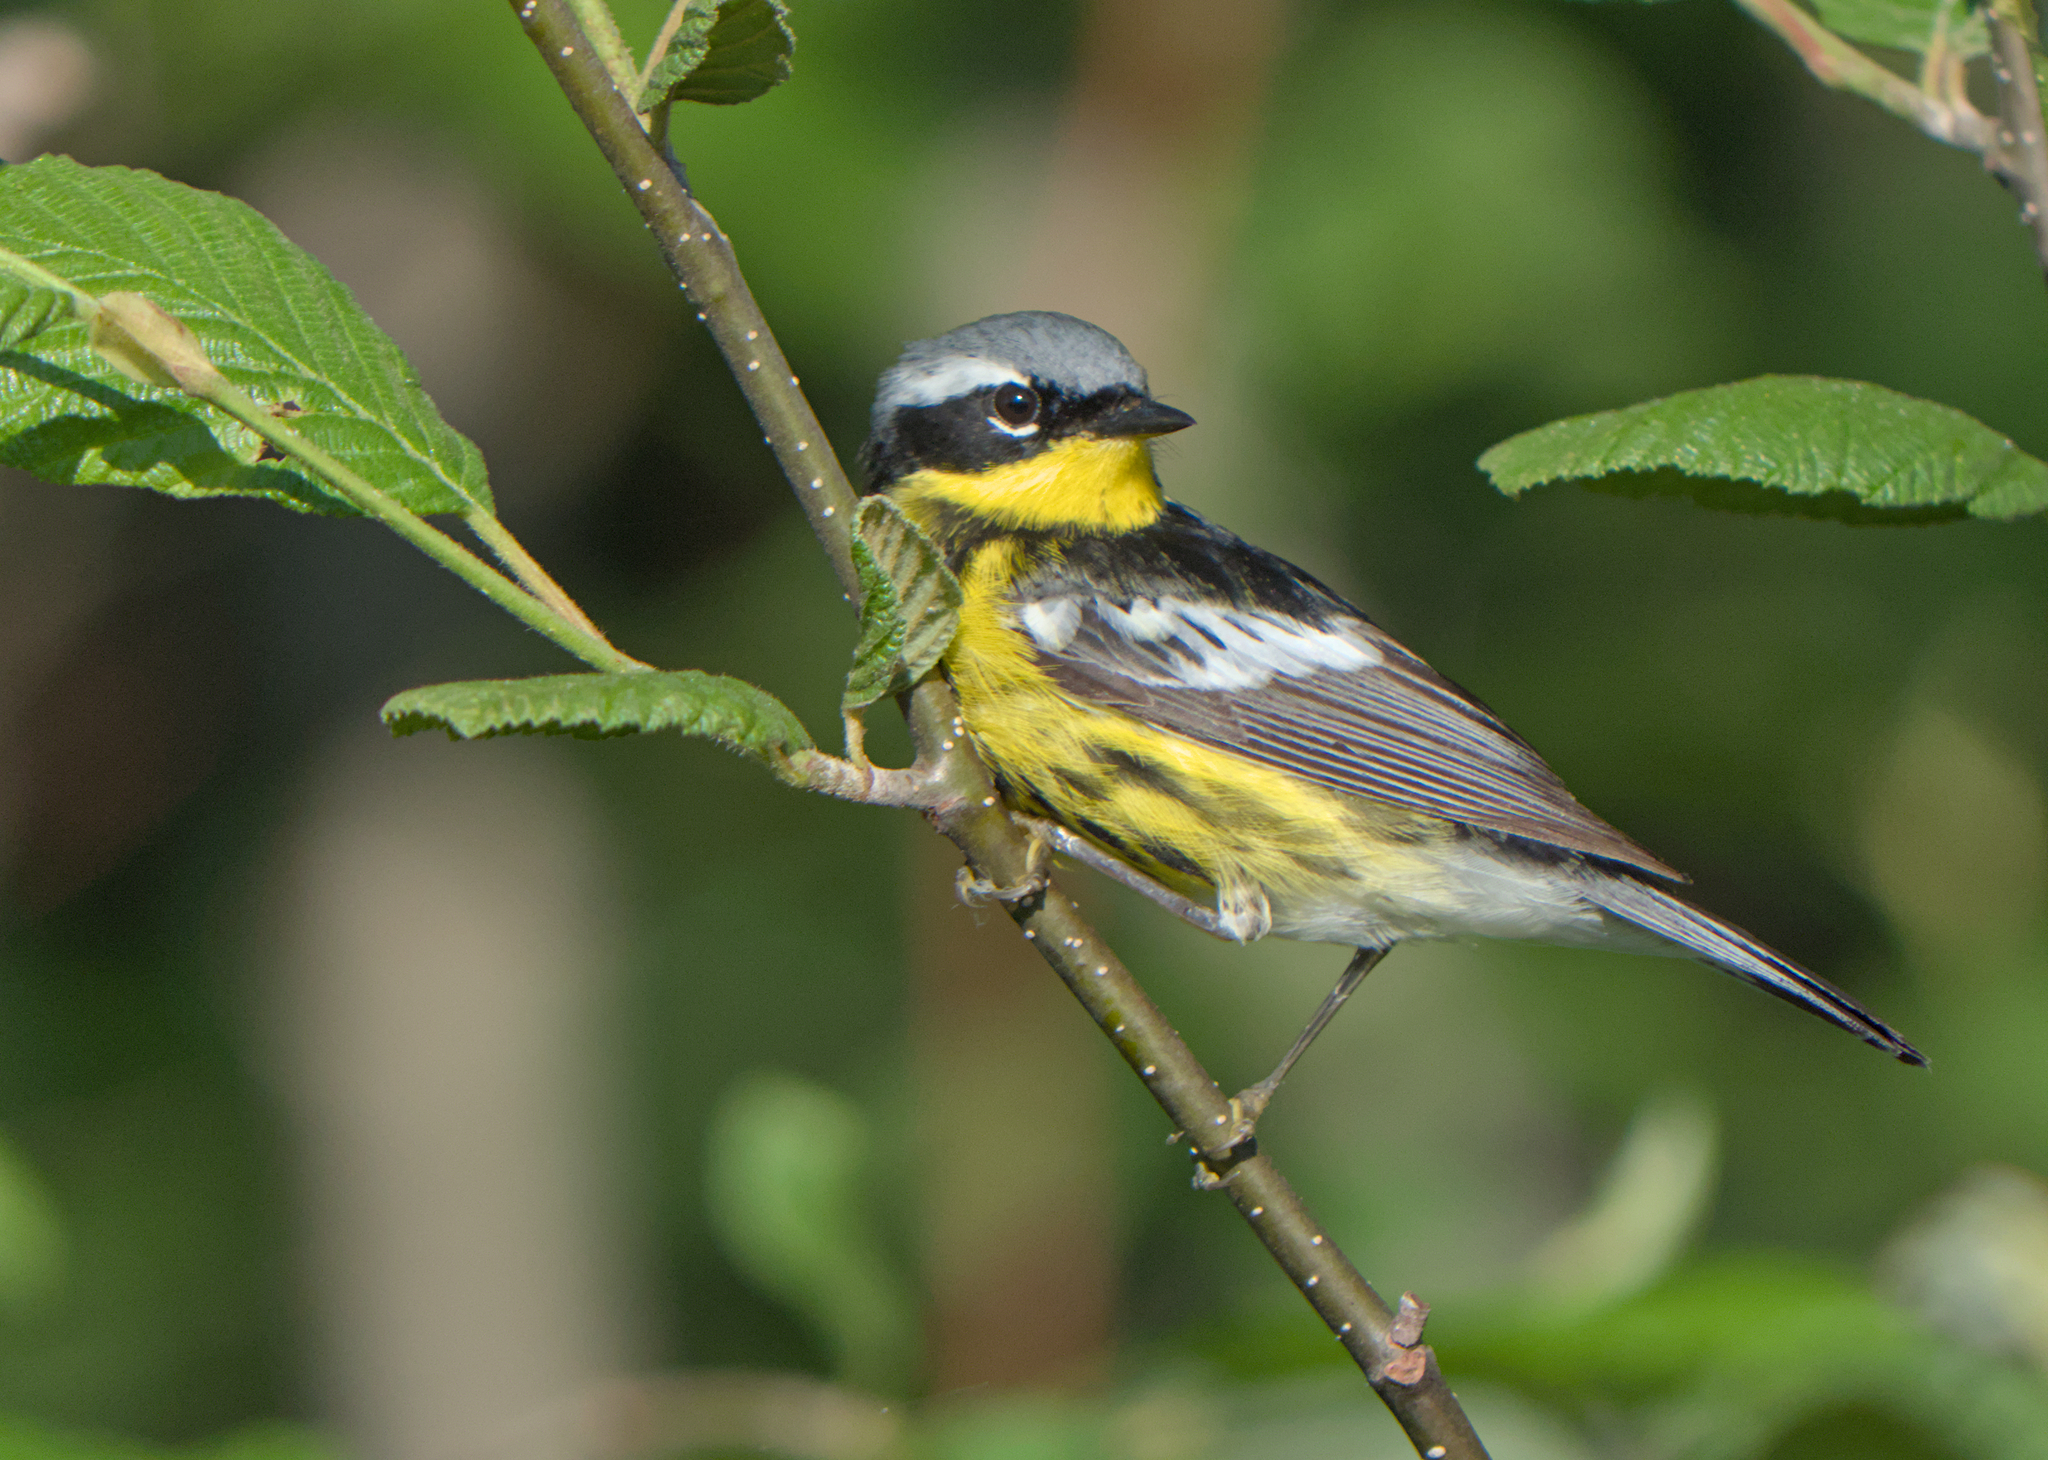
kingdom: Animalia
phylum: Chordata
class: Aves
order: Passeriformes
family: Parulidae
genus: Setophaga
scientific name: Setophaga magnolia
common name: Magnolia warbler
